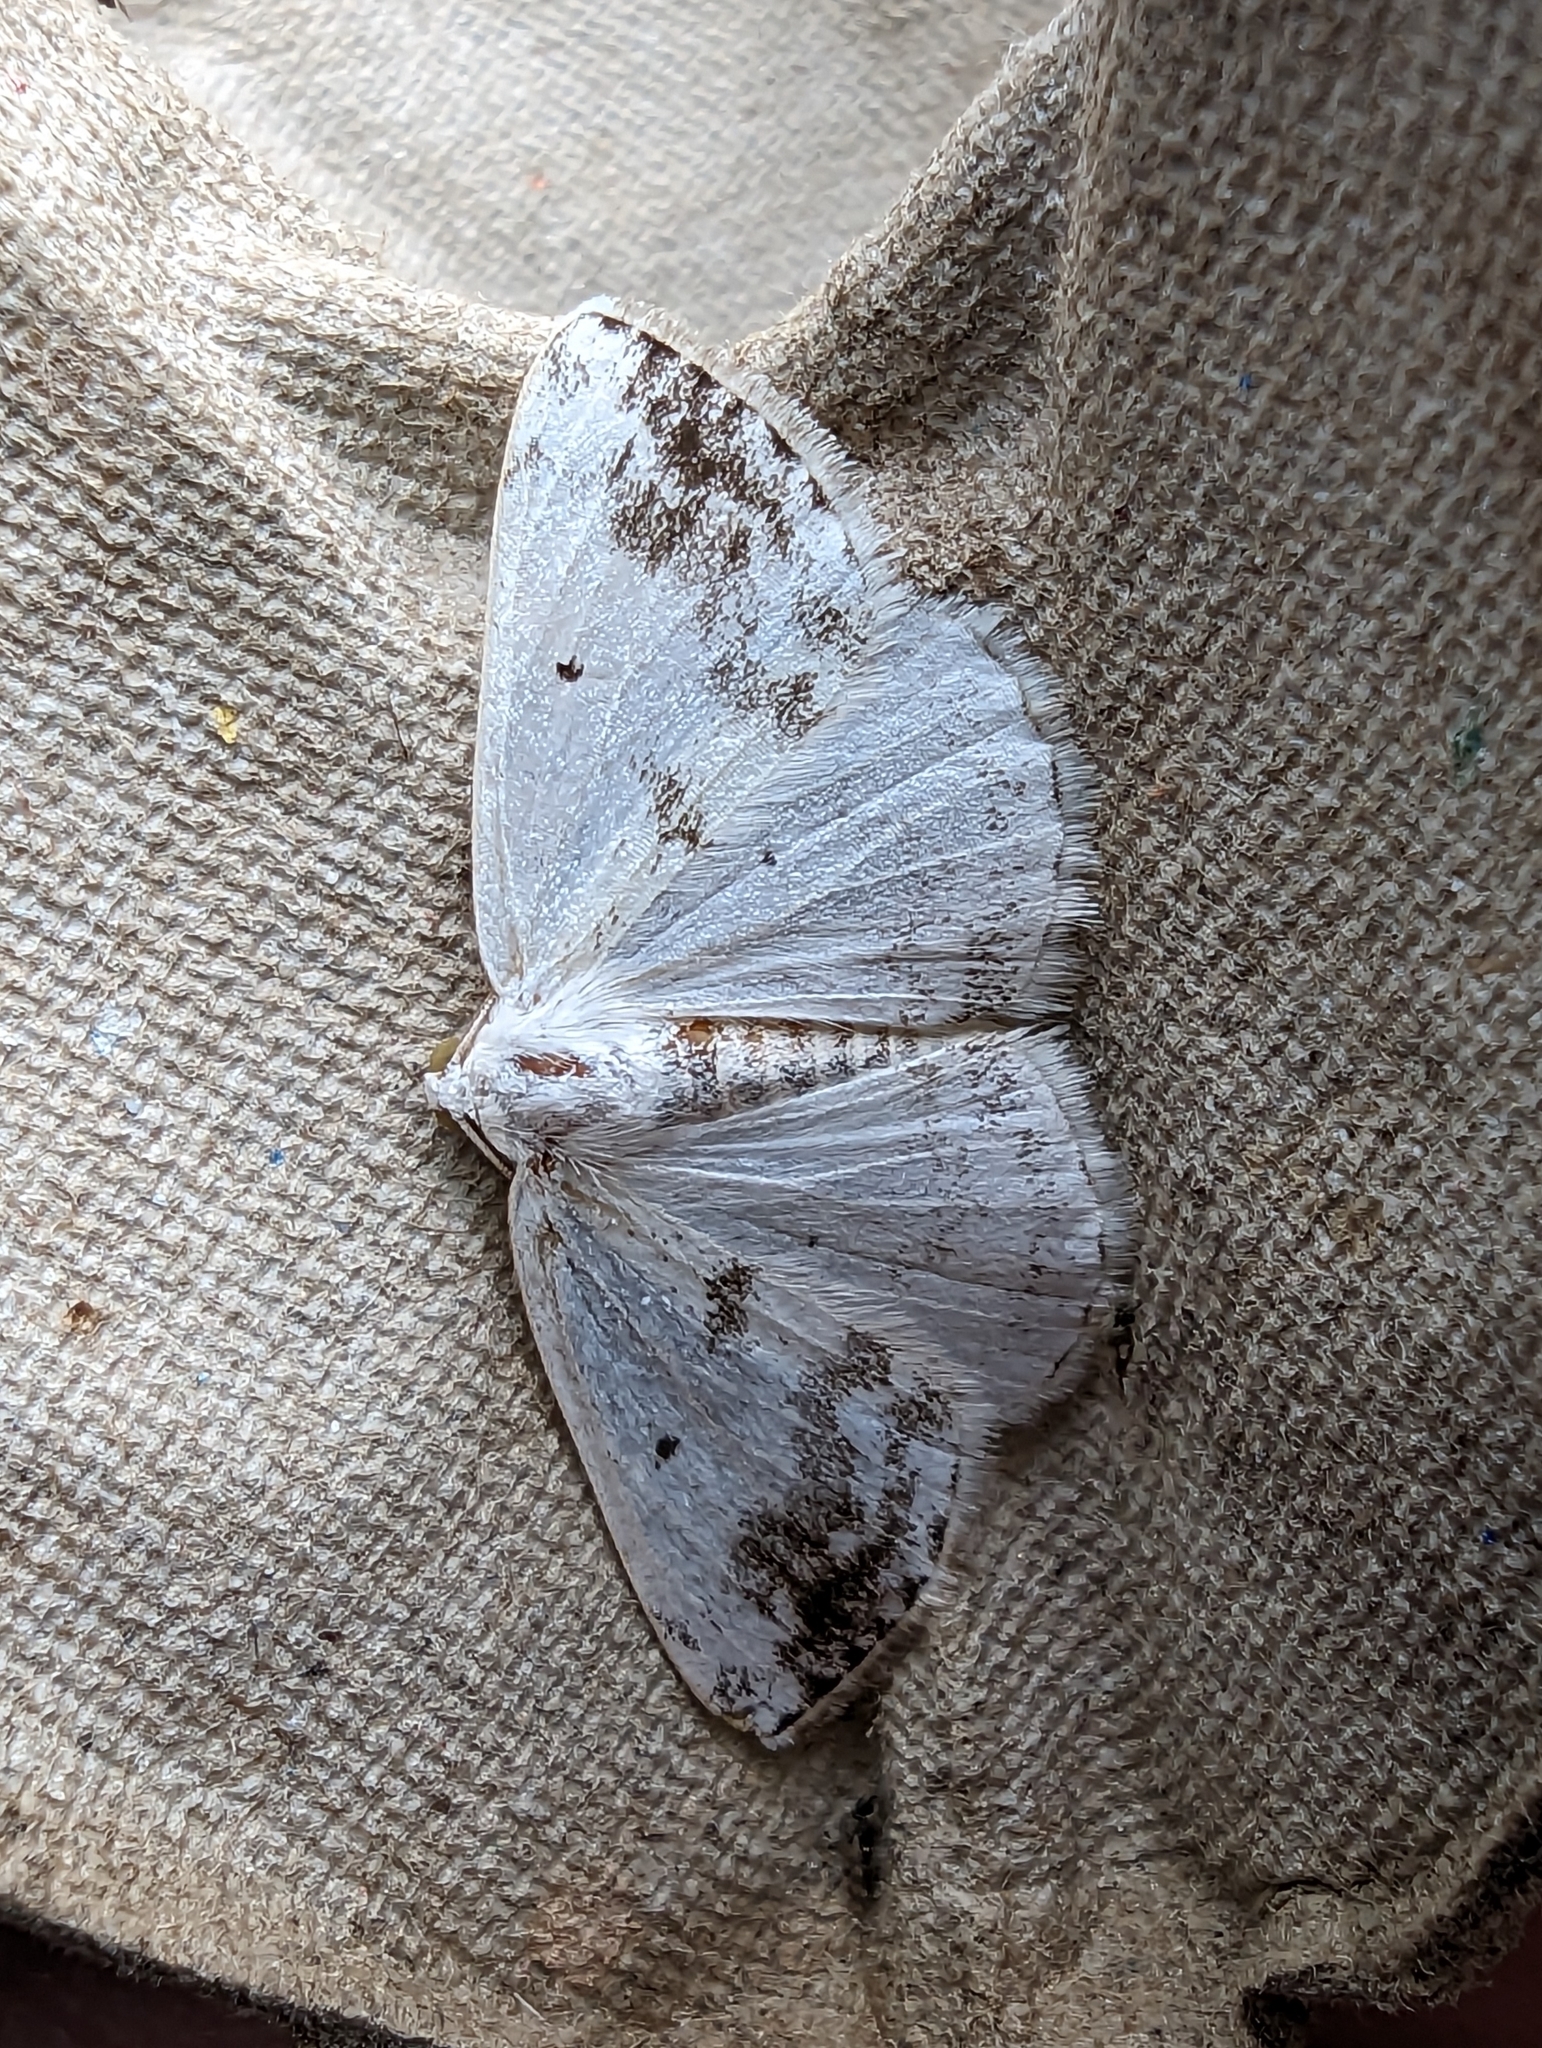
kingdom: Animalia
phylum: Arthropoda
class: Insecta
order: Lepidoptera
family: Geometridae
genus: Lomographa
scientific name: Lomographa temerata
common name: Clouded silver
